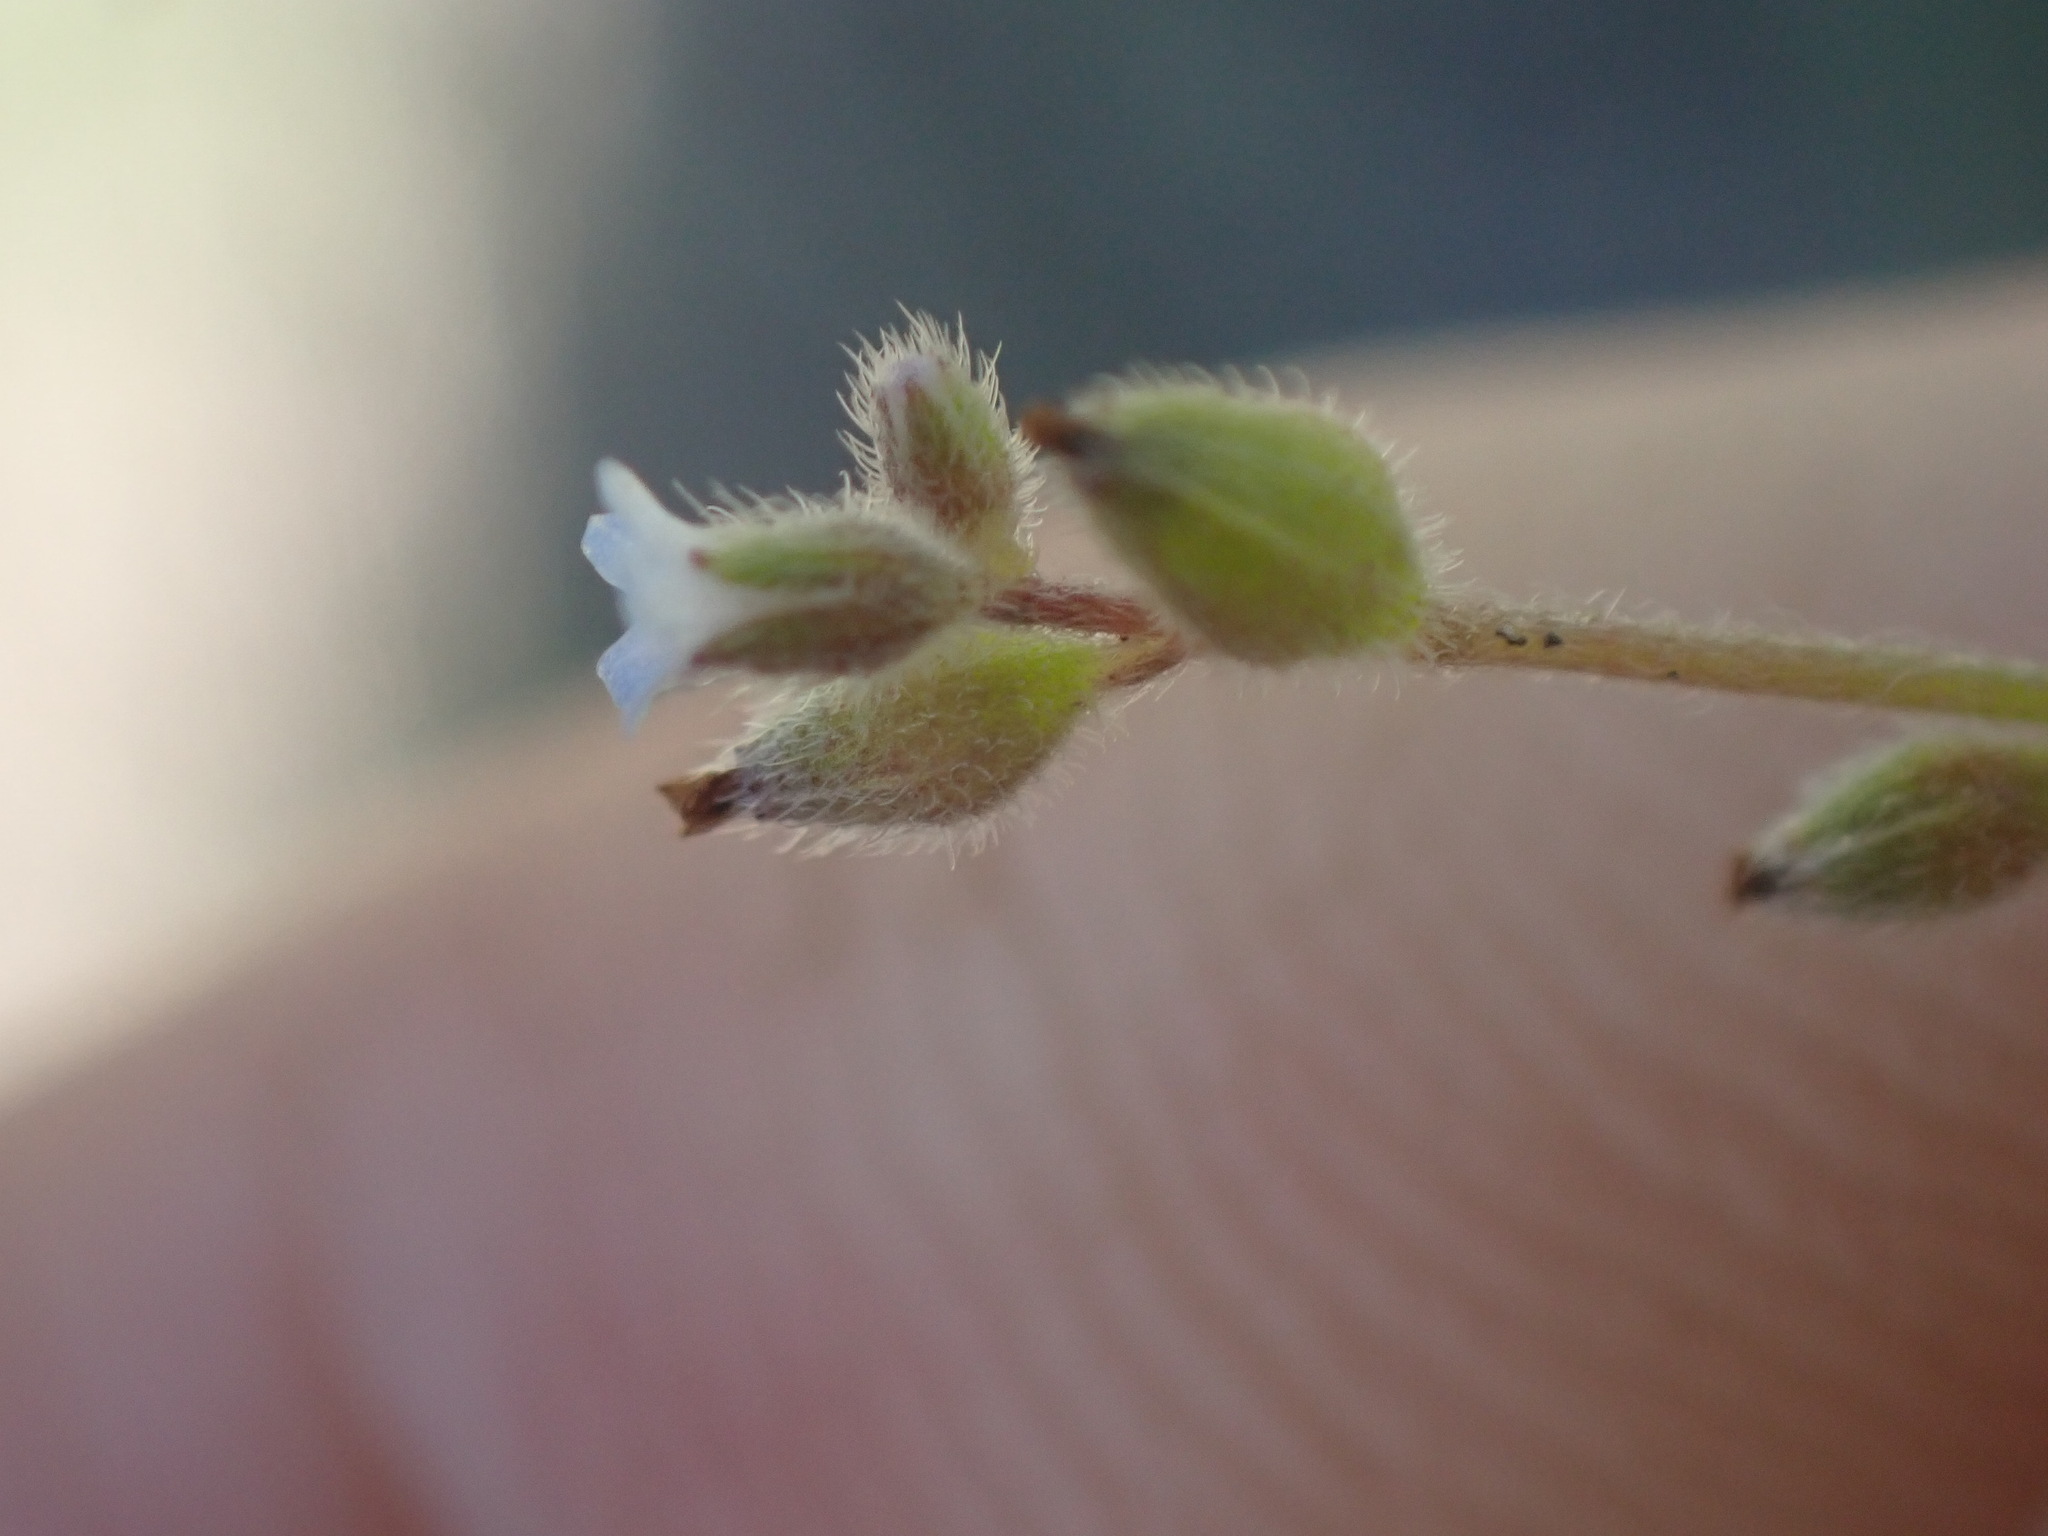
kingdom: Plantae
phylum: Tracheophyta
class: Magnoliopsida
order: Boraginales
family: Boraginaceae
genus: Myosotis
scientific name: Myosotis stricta
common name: Strict forget-me-not
